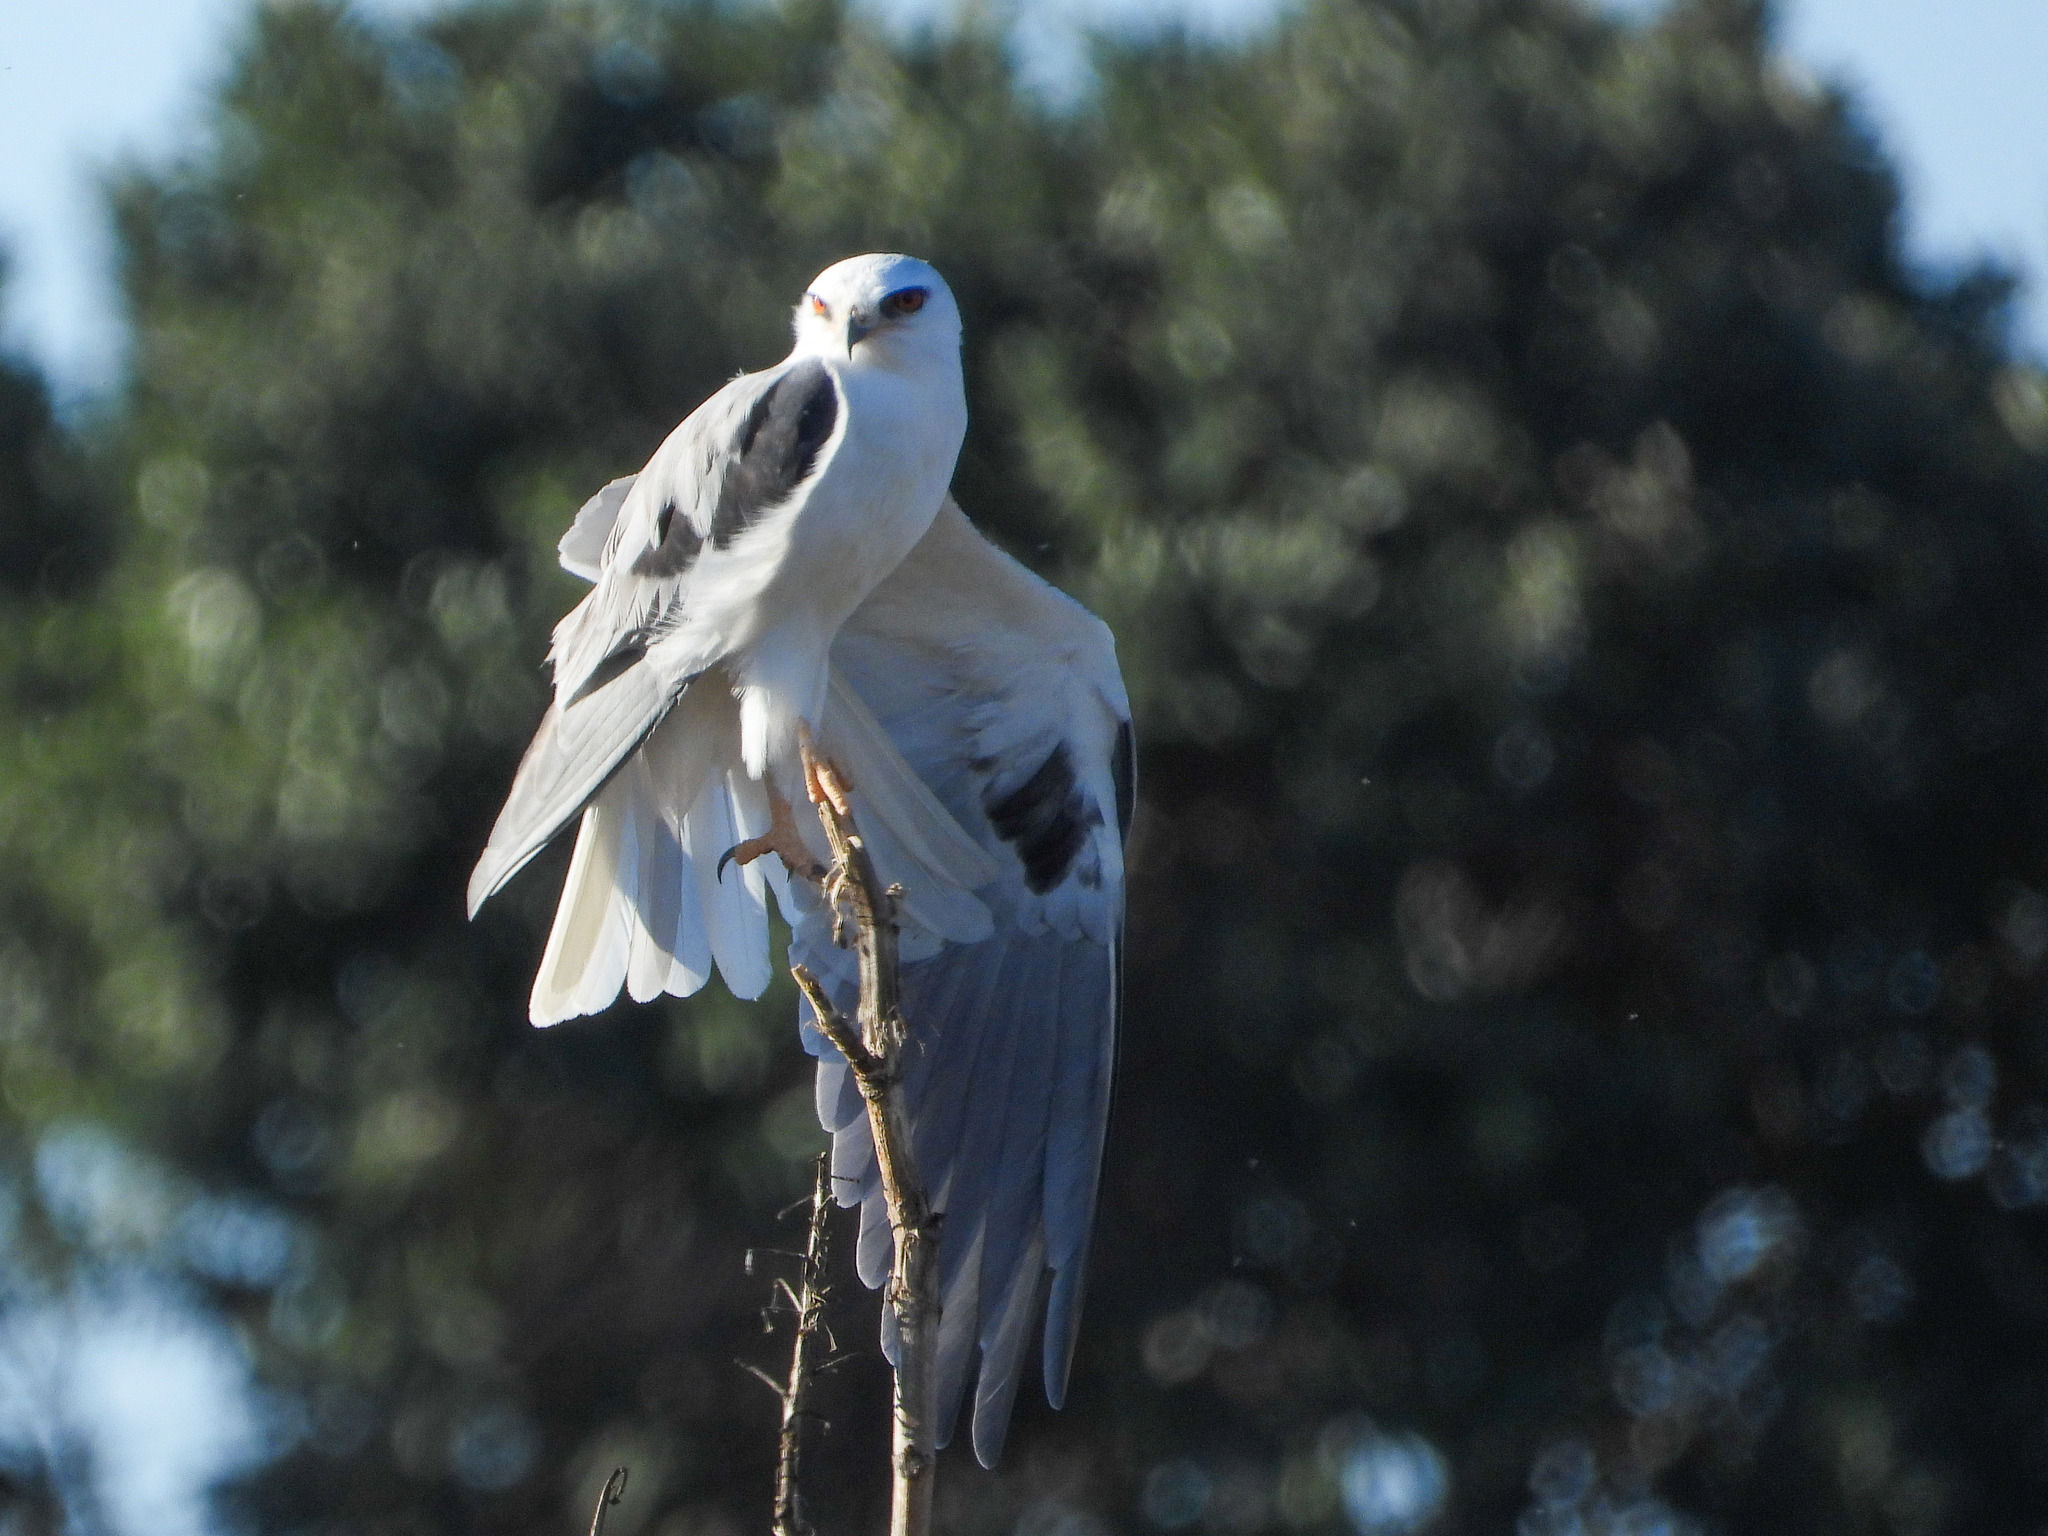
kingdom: Animalia
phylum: Chordata
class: Aves
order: Accipitriformes
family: Accipitridae
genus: Elanus
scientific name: Elanus leucurus
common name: White-tailed kite
